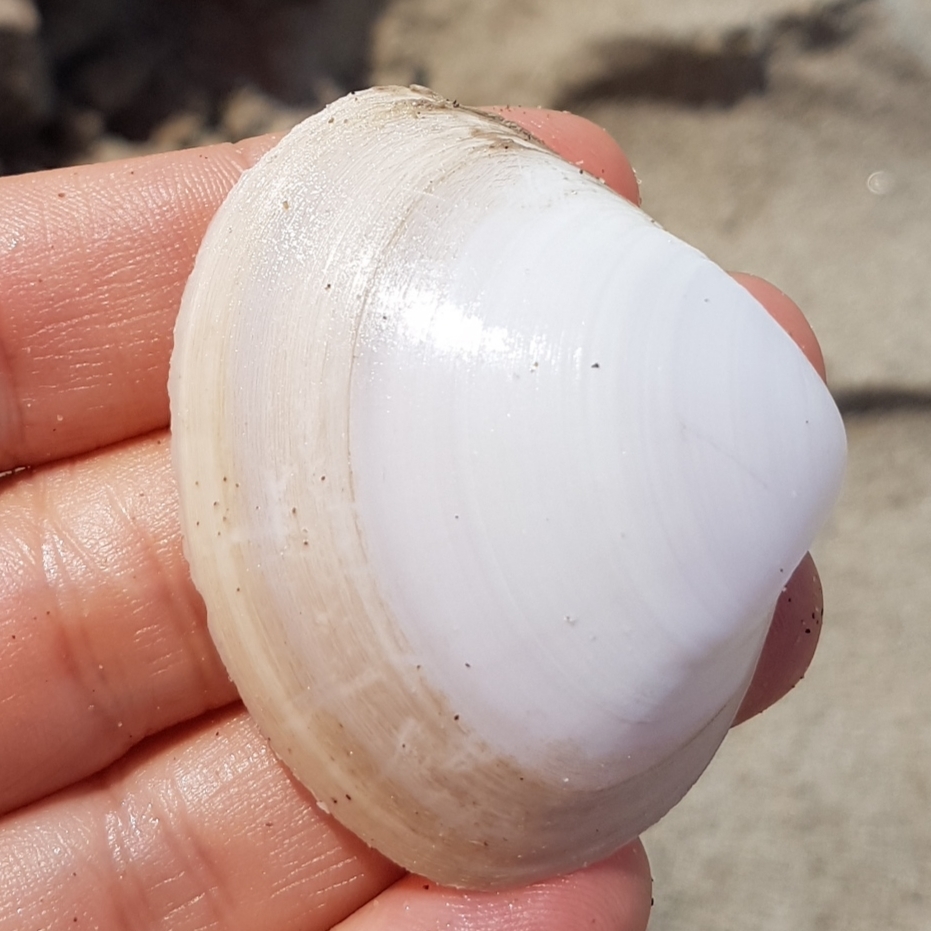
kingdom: Animalia
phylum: Mollusca
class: Bivalvia
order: Venerida
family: Mactridae
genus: Mactra
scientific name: Mactra stultorum
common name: Rayed trough shell
